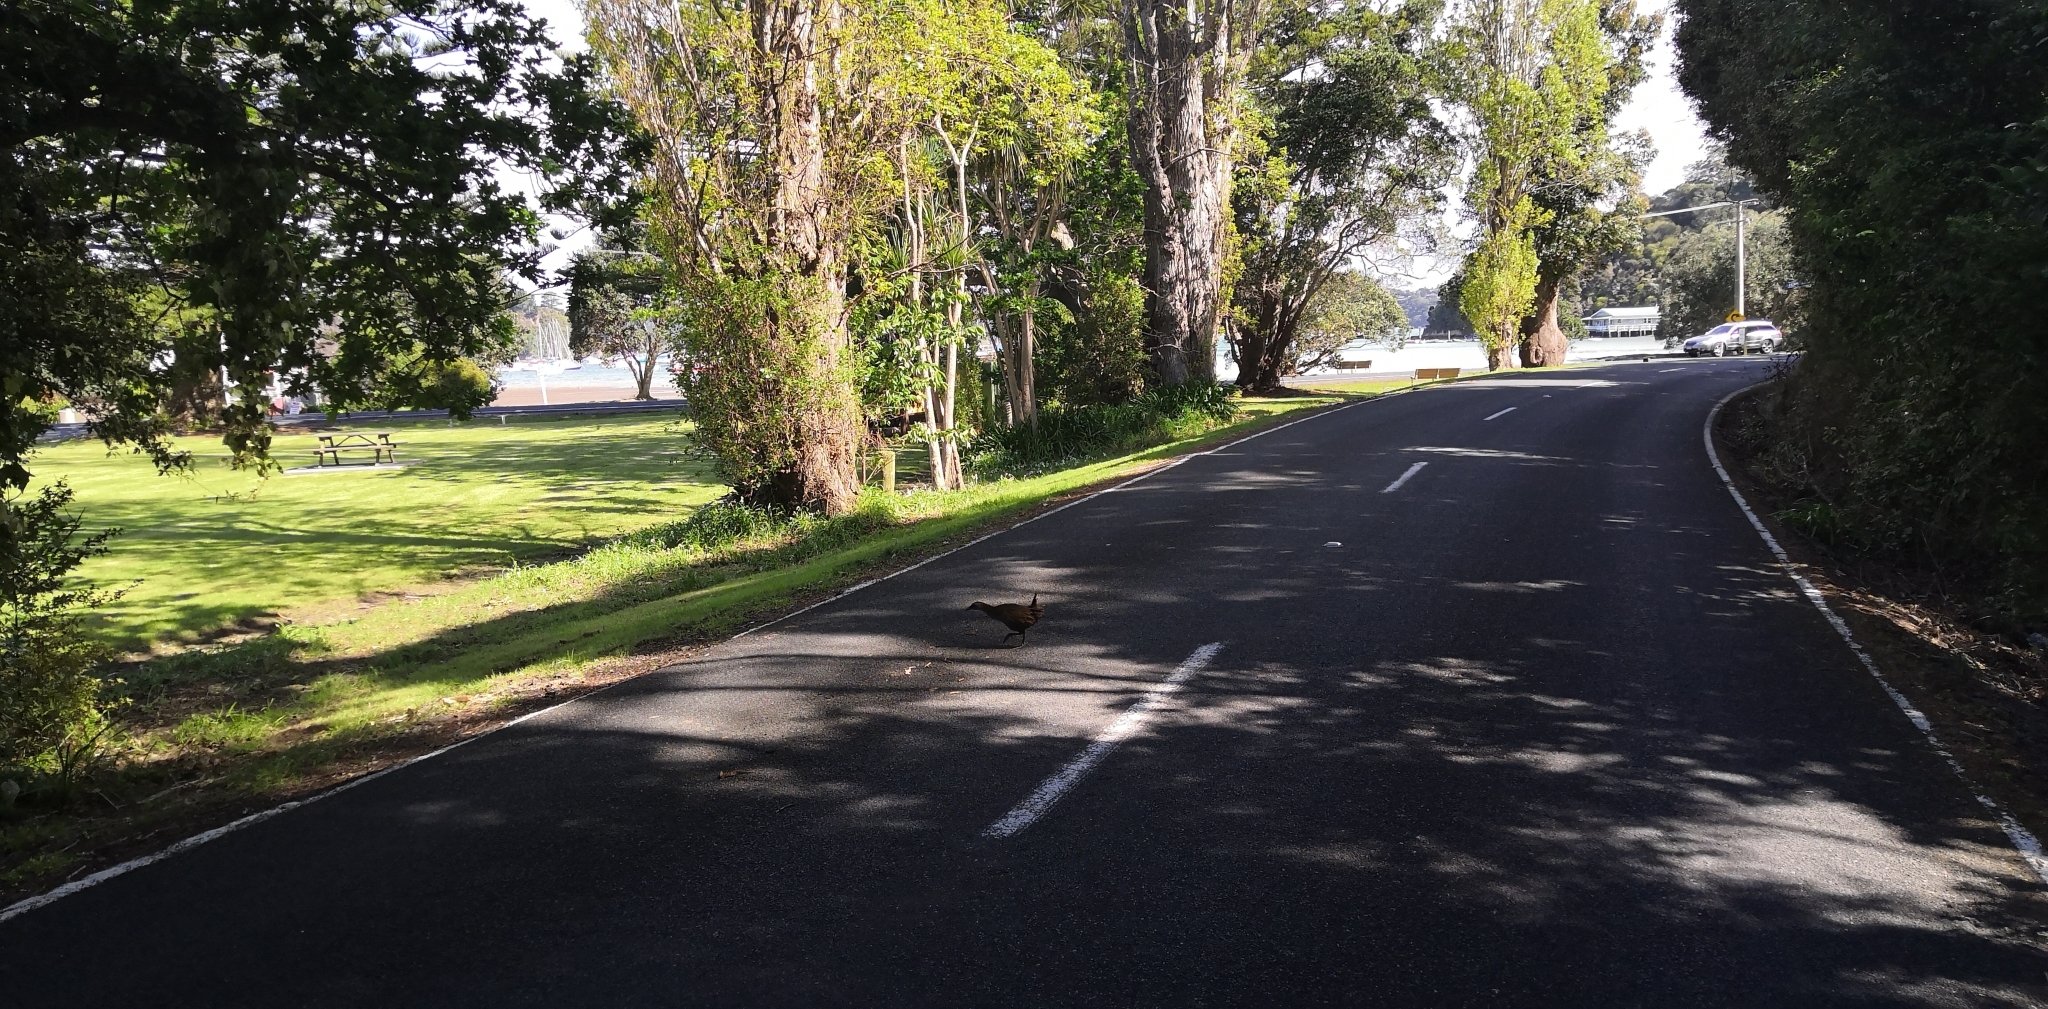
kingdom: Animalia
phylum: Chordata
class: Aves
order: Gruiformes
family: Rallidae
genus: Gallirallus
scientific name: Gallirallus australis
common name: Weka
